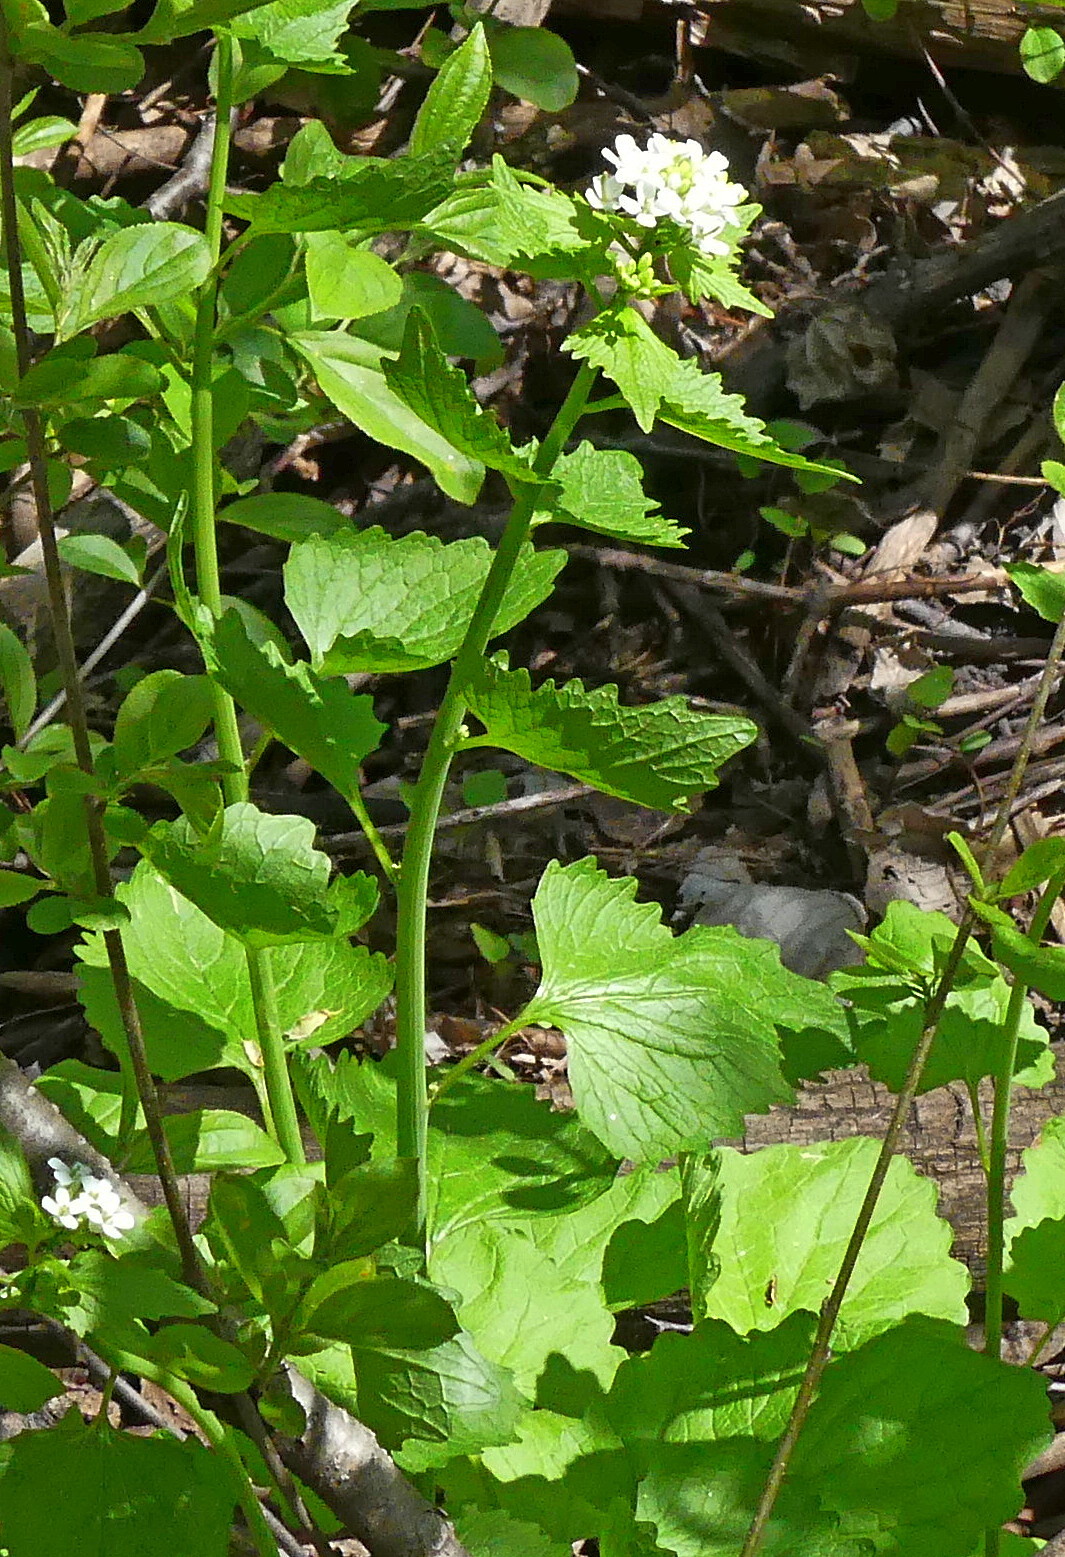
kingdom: Plantae
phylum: Tracheophyta
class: Magnoliopsida
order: Brassicales
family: Brassicaceae
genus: Alliaria
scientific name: Alliaria petiolata
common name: Garlic mustard
